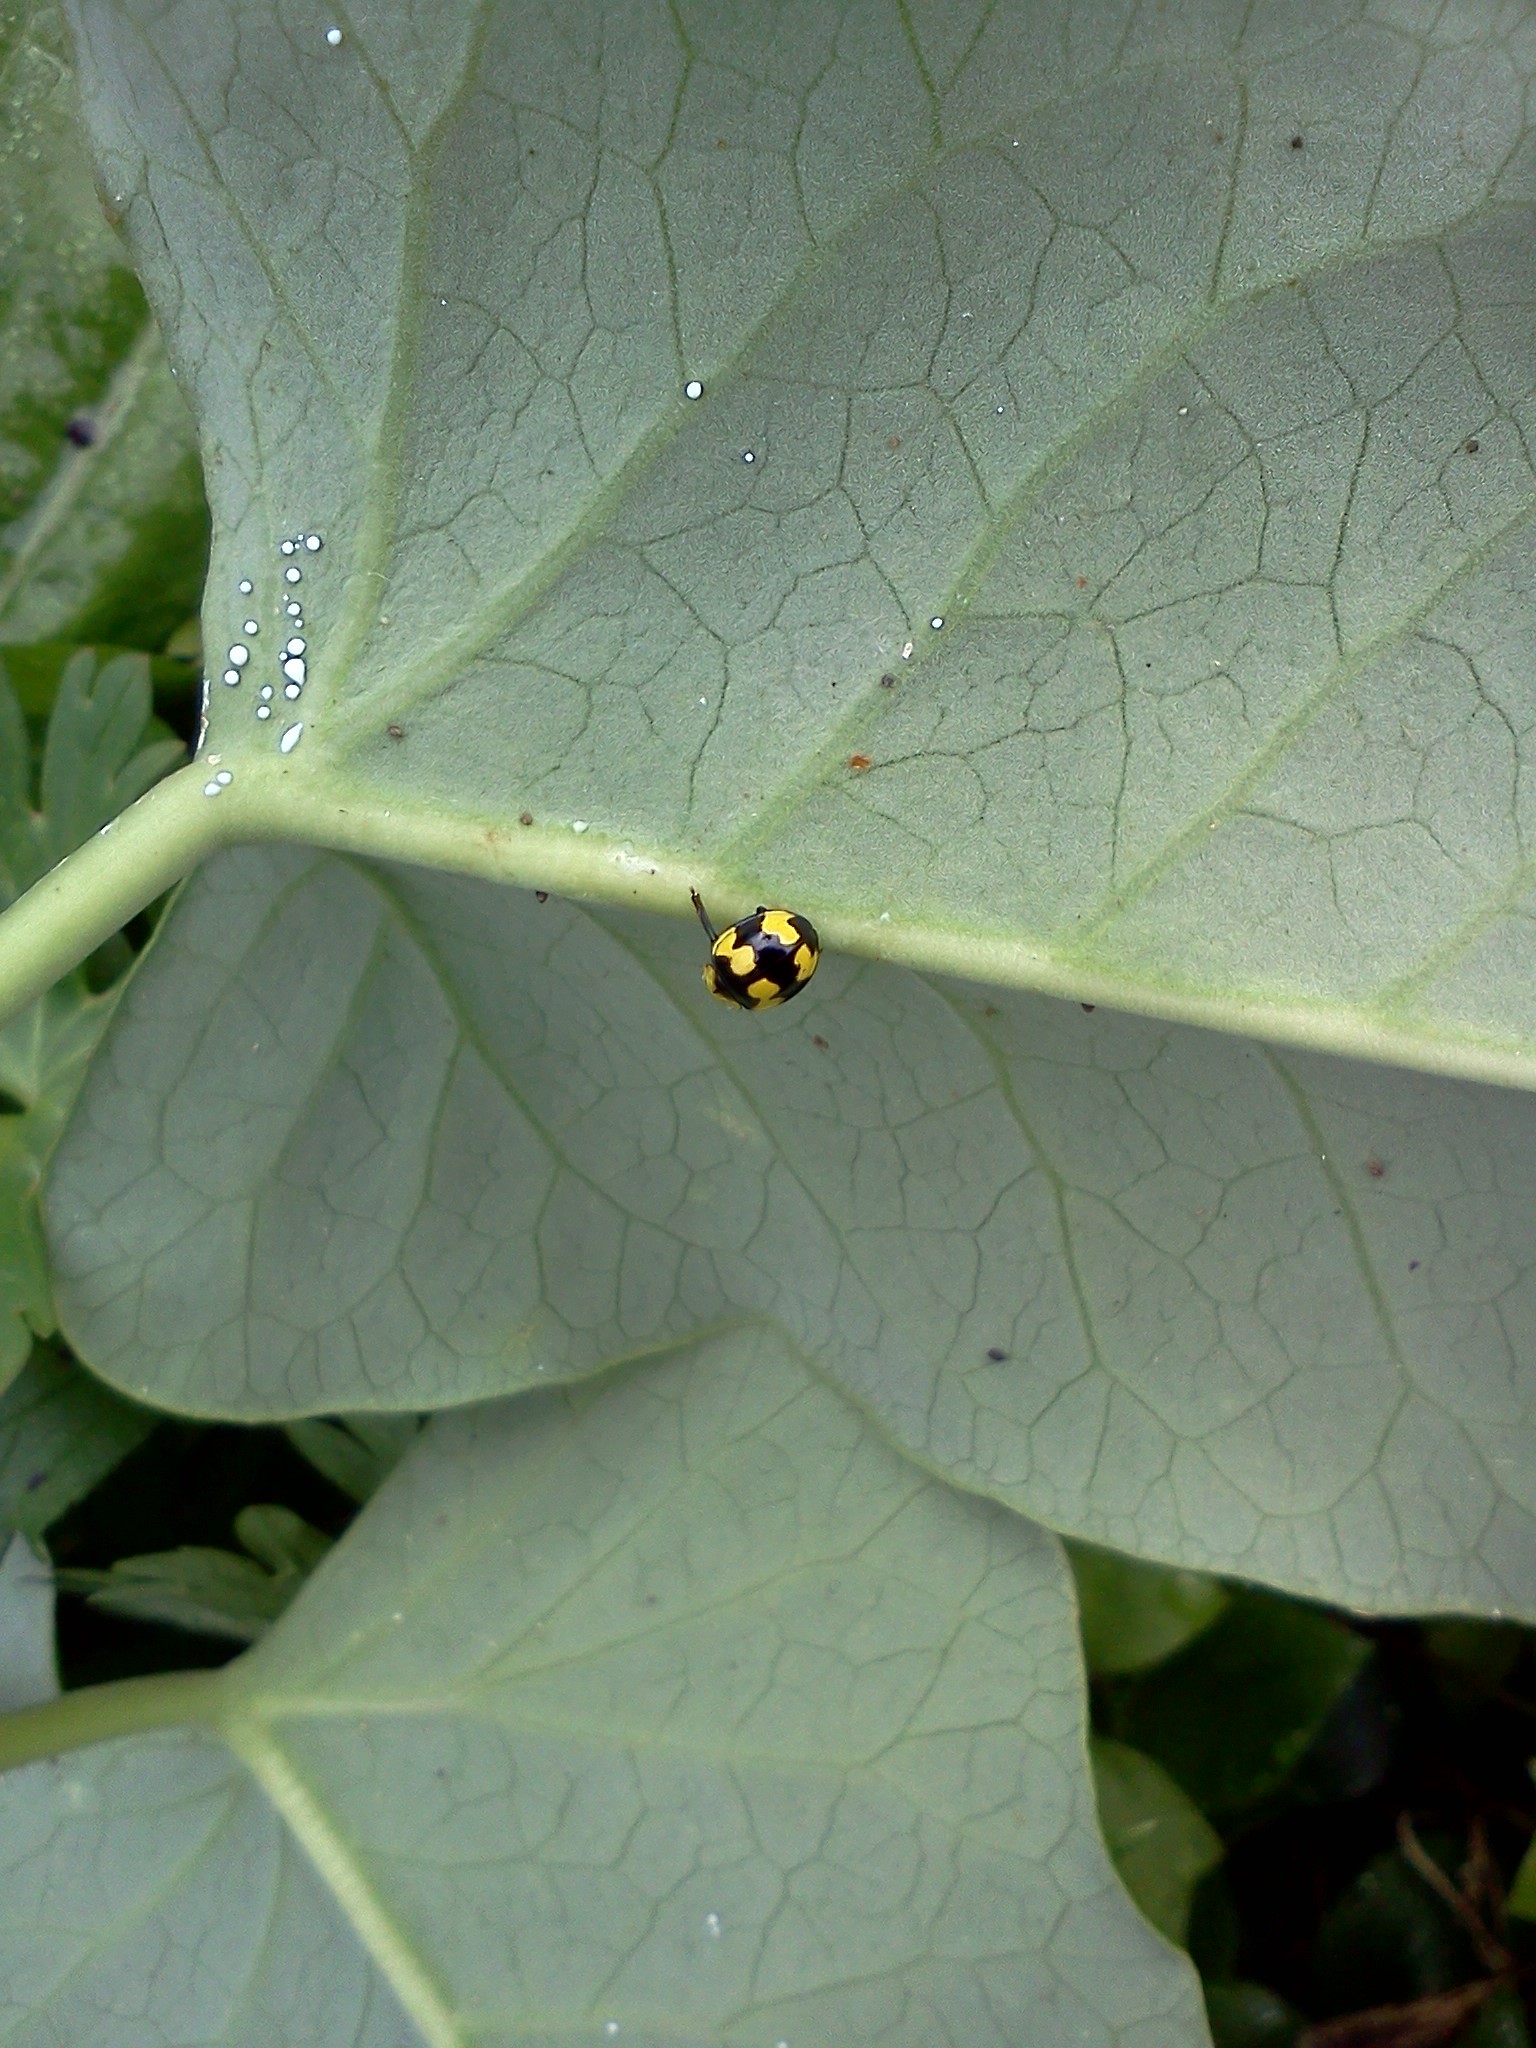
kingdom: Animalia
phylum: Arthropoda
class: Insecta
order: Coleoptera
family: Coccinellidae
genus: Illeis
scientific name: Illeis galbula
